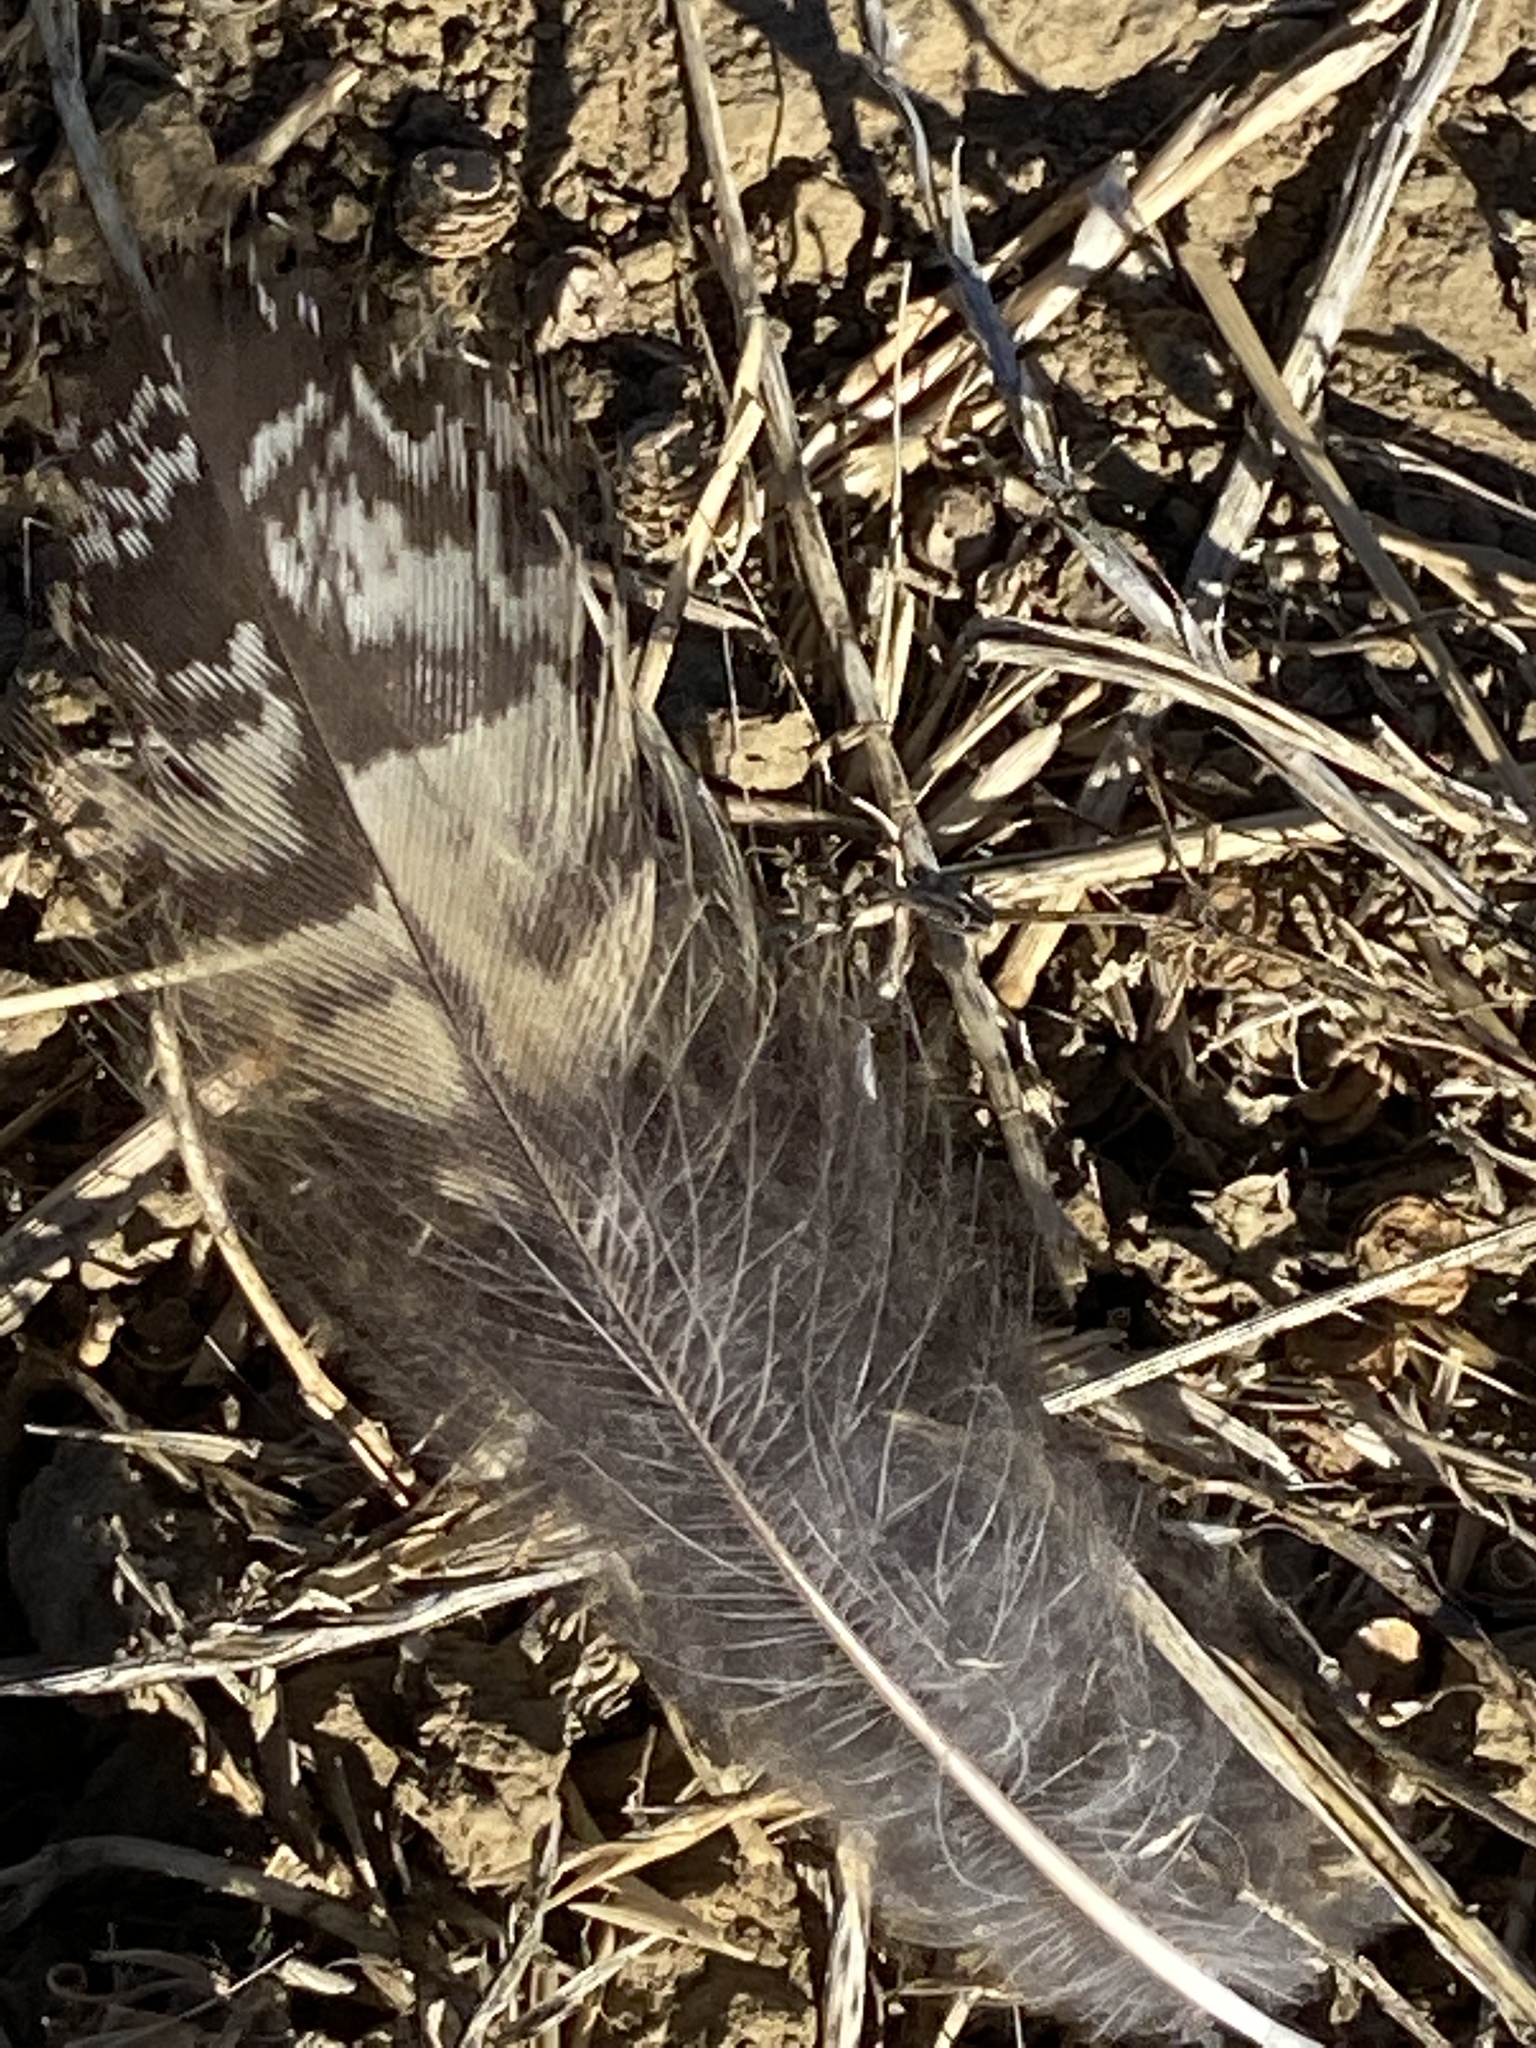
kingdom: Animalia
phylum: Chordata
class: Aves
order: Strigiformes
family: Strigidae
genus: Bubo
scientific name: Bubo virginianus
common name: Great horned owl
